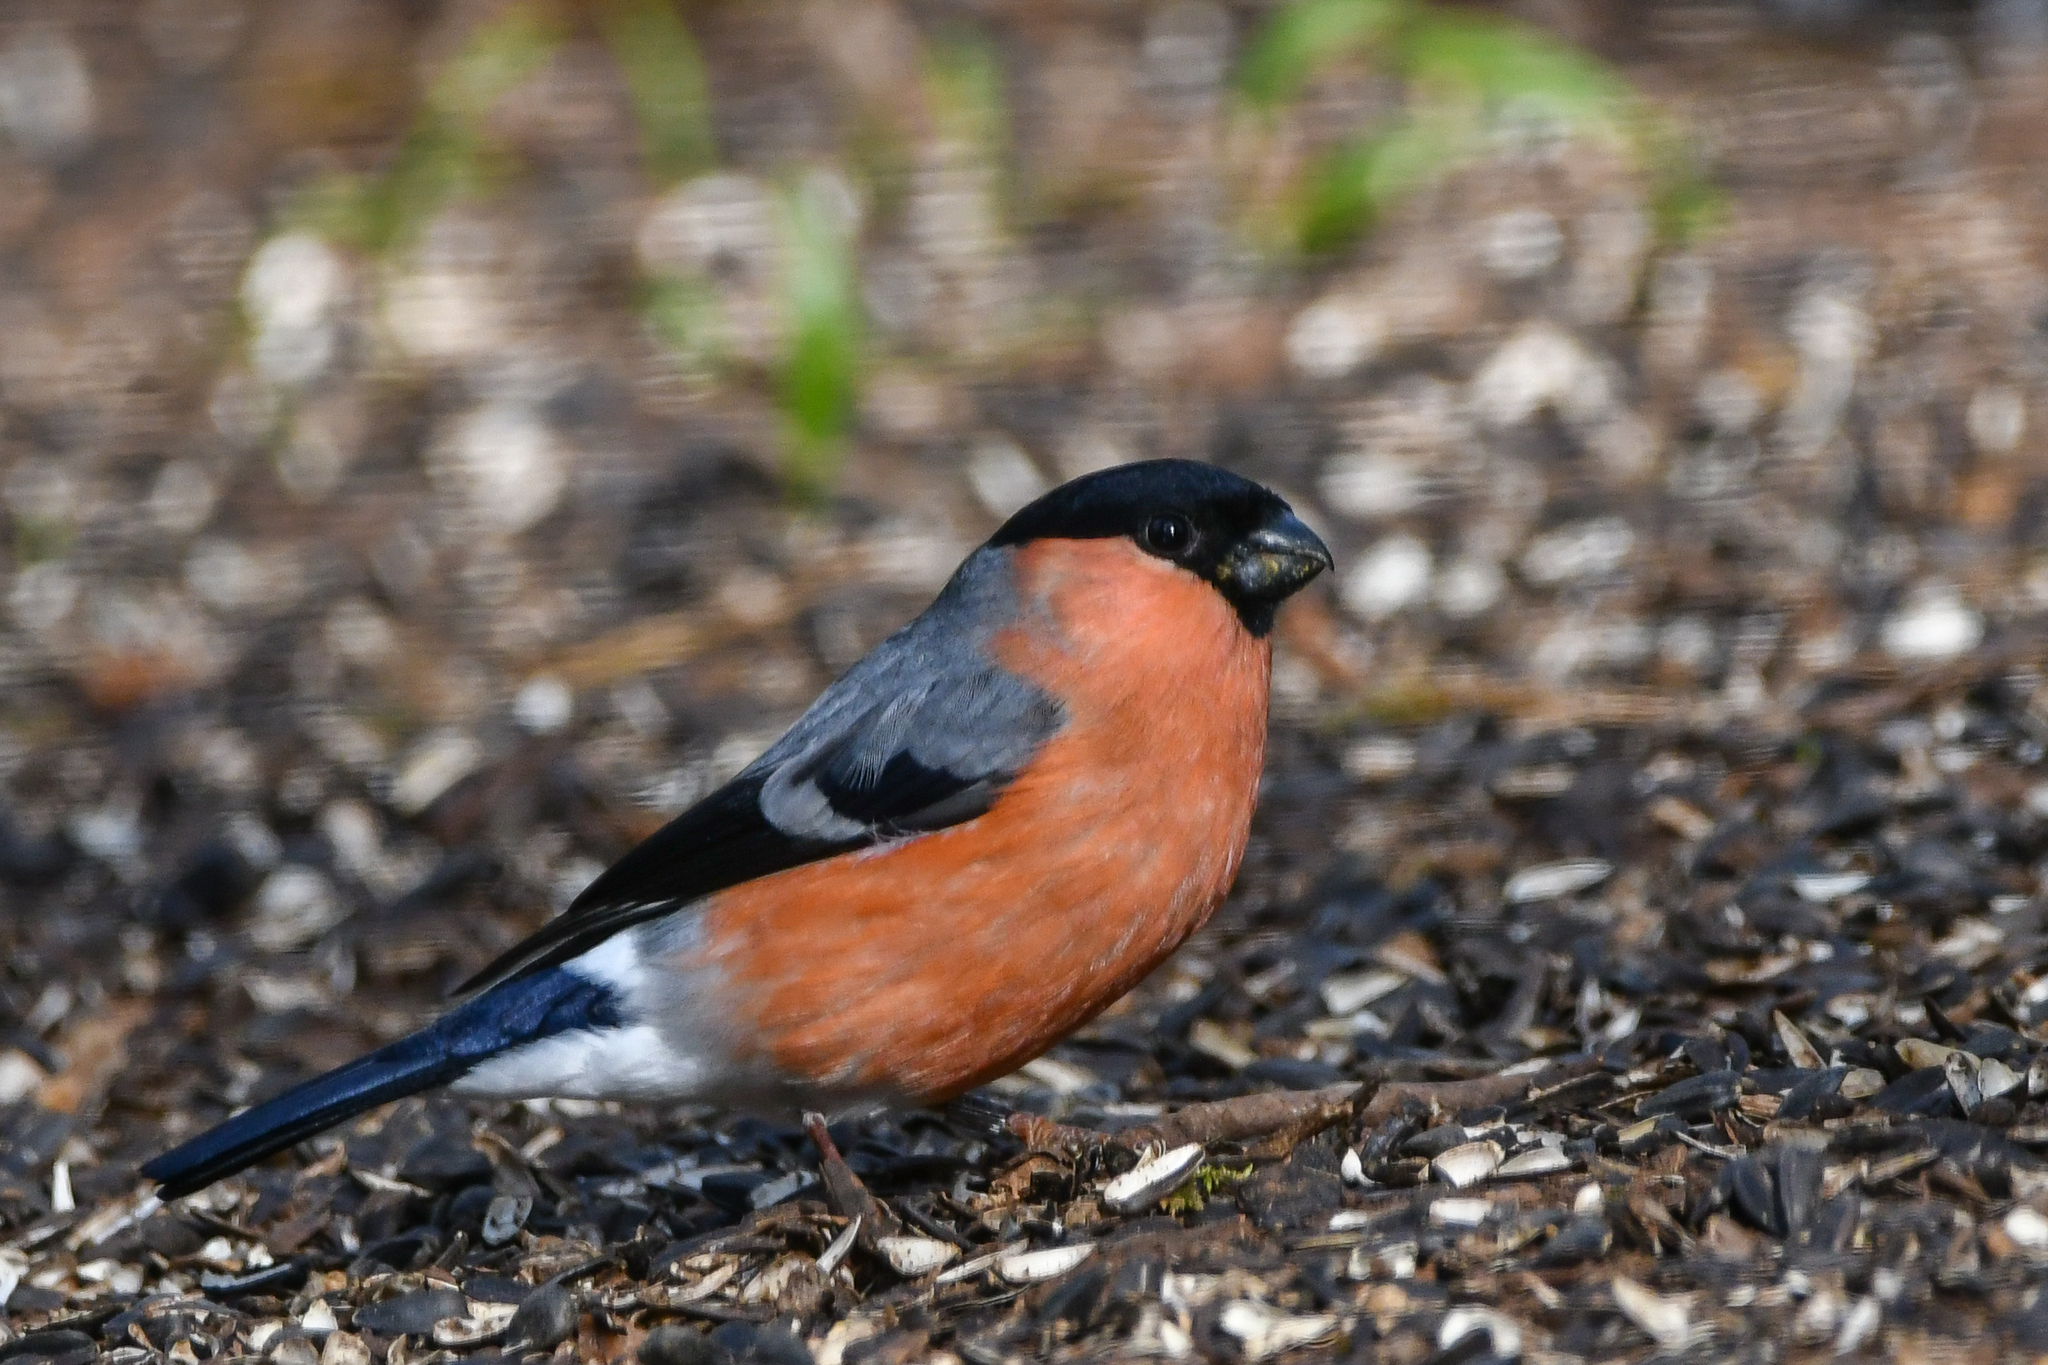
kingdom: Animalia
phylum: Chordata
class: Aves
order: Passeriformes
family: Fringillidae
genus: Pyrrhula
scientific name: Pyrrhula pyrrhula
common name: Eurasian bullfinch
